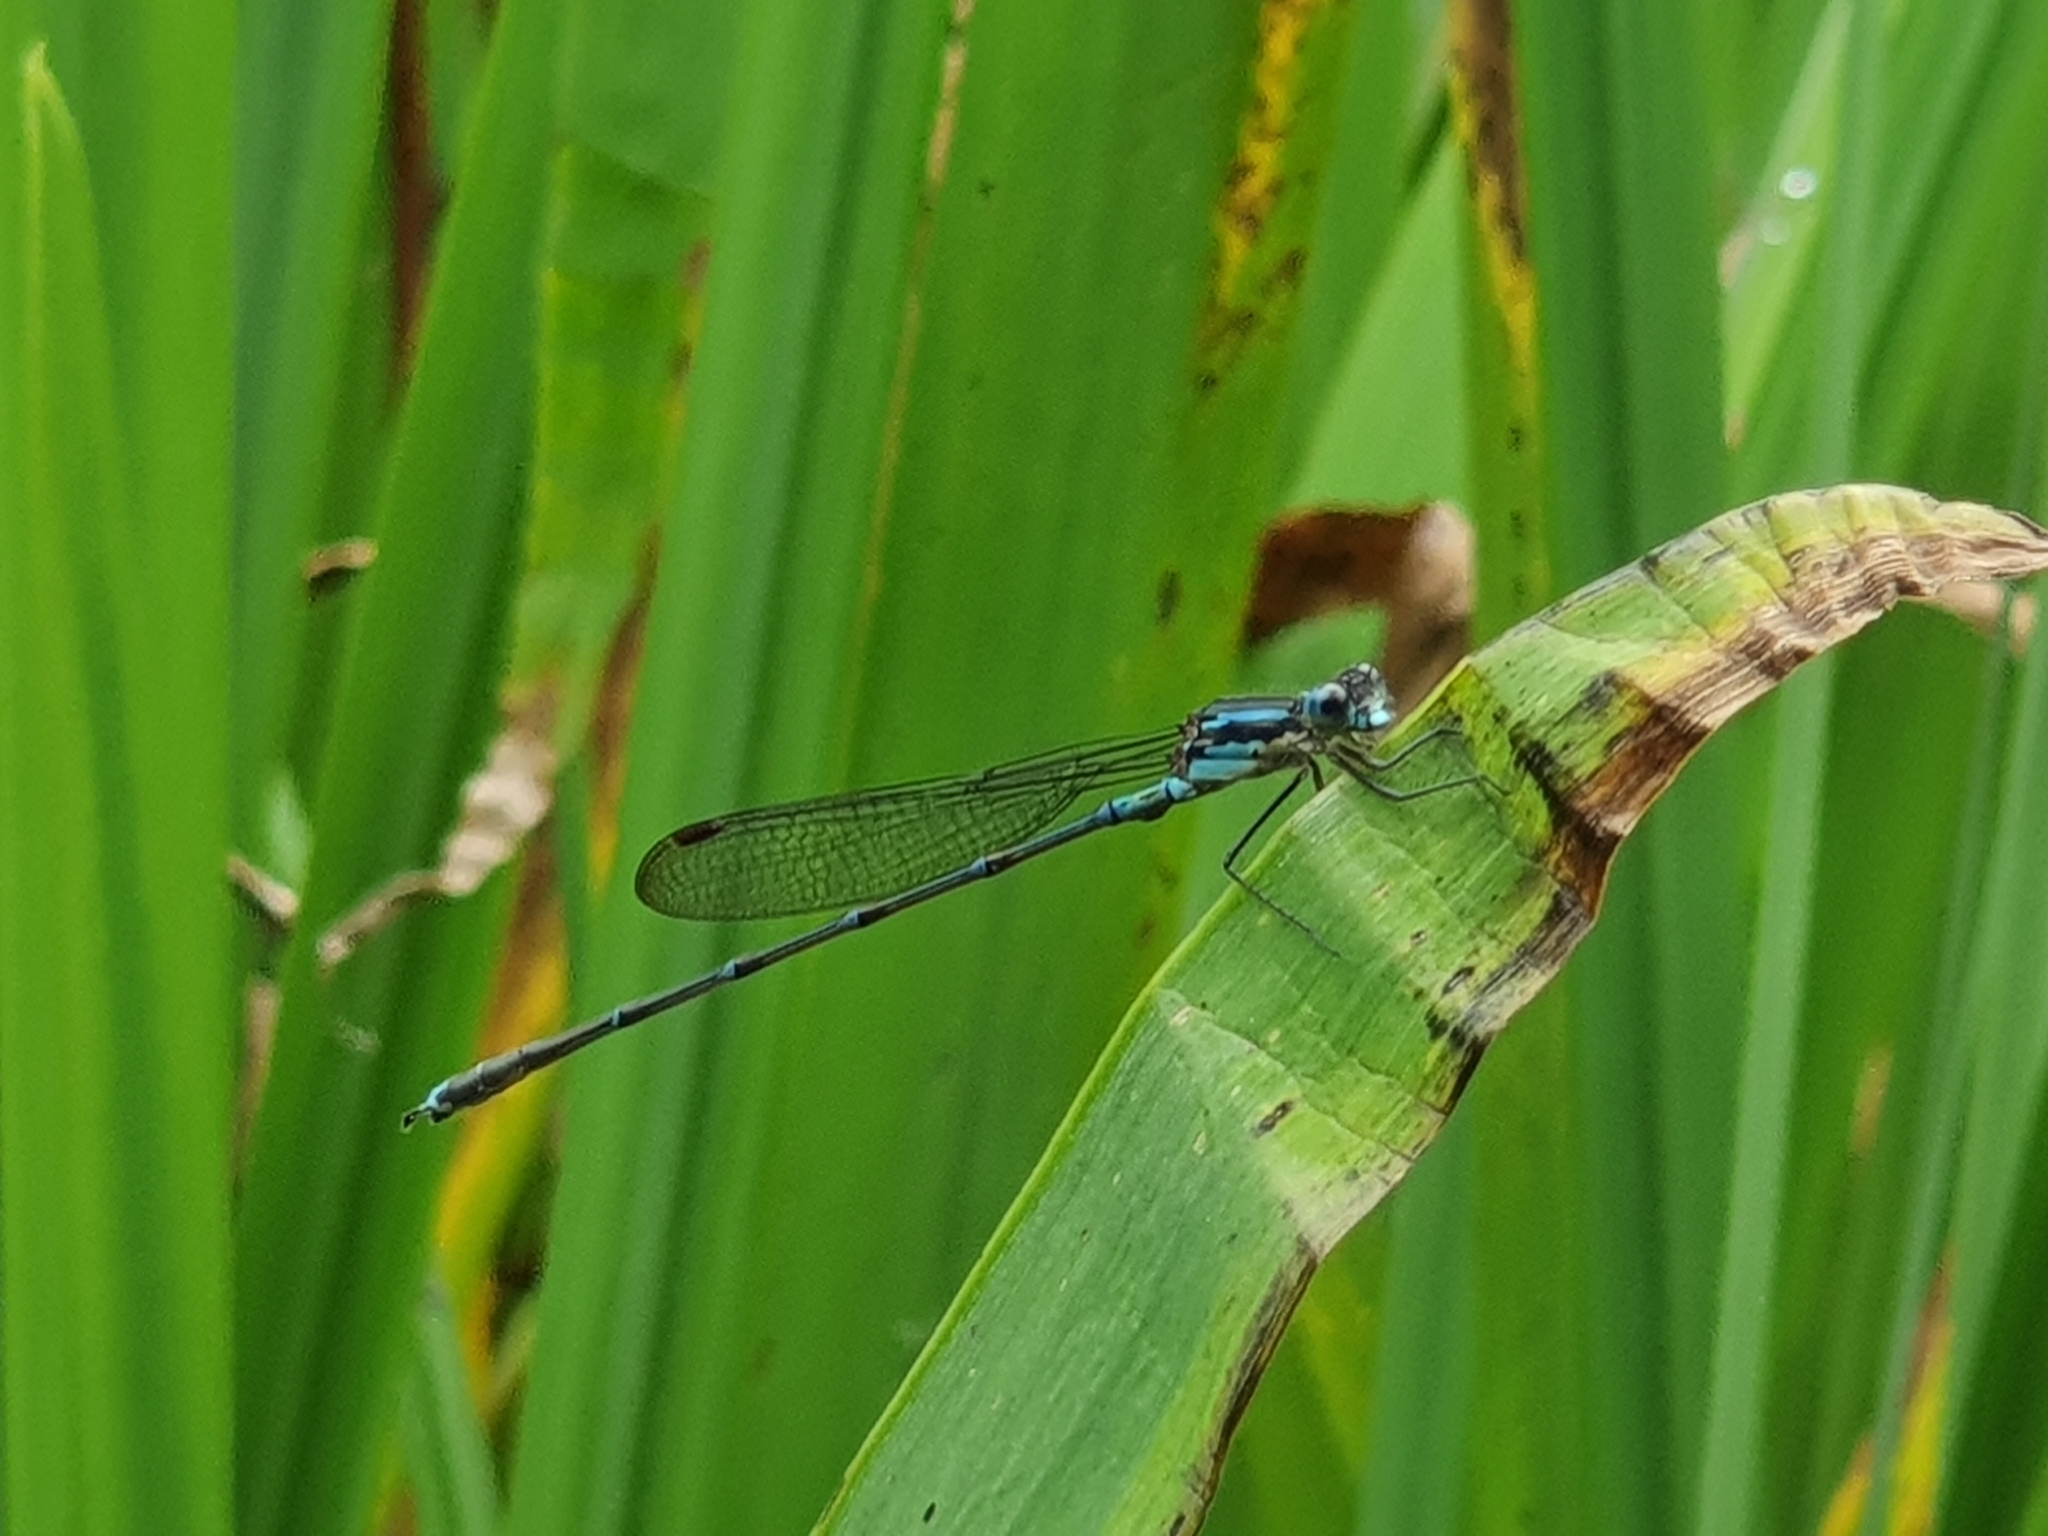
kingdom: Animalia
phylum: Arthropoda
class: Insecta
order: Odonata
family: Lestidae
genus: Austrolestes
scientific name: Austrolestes colensonis
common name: Blue damselfly
